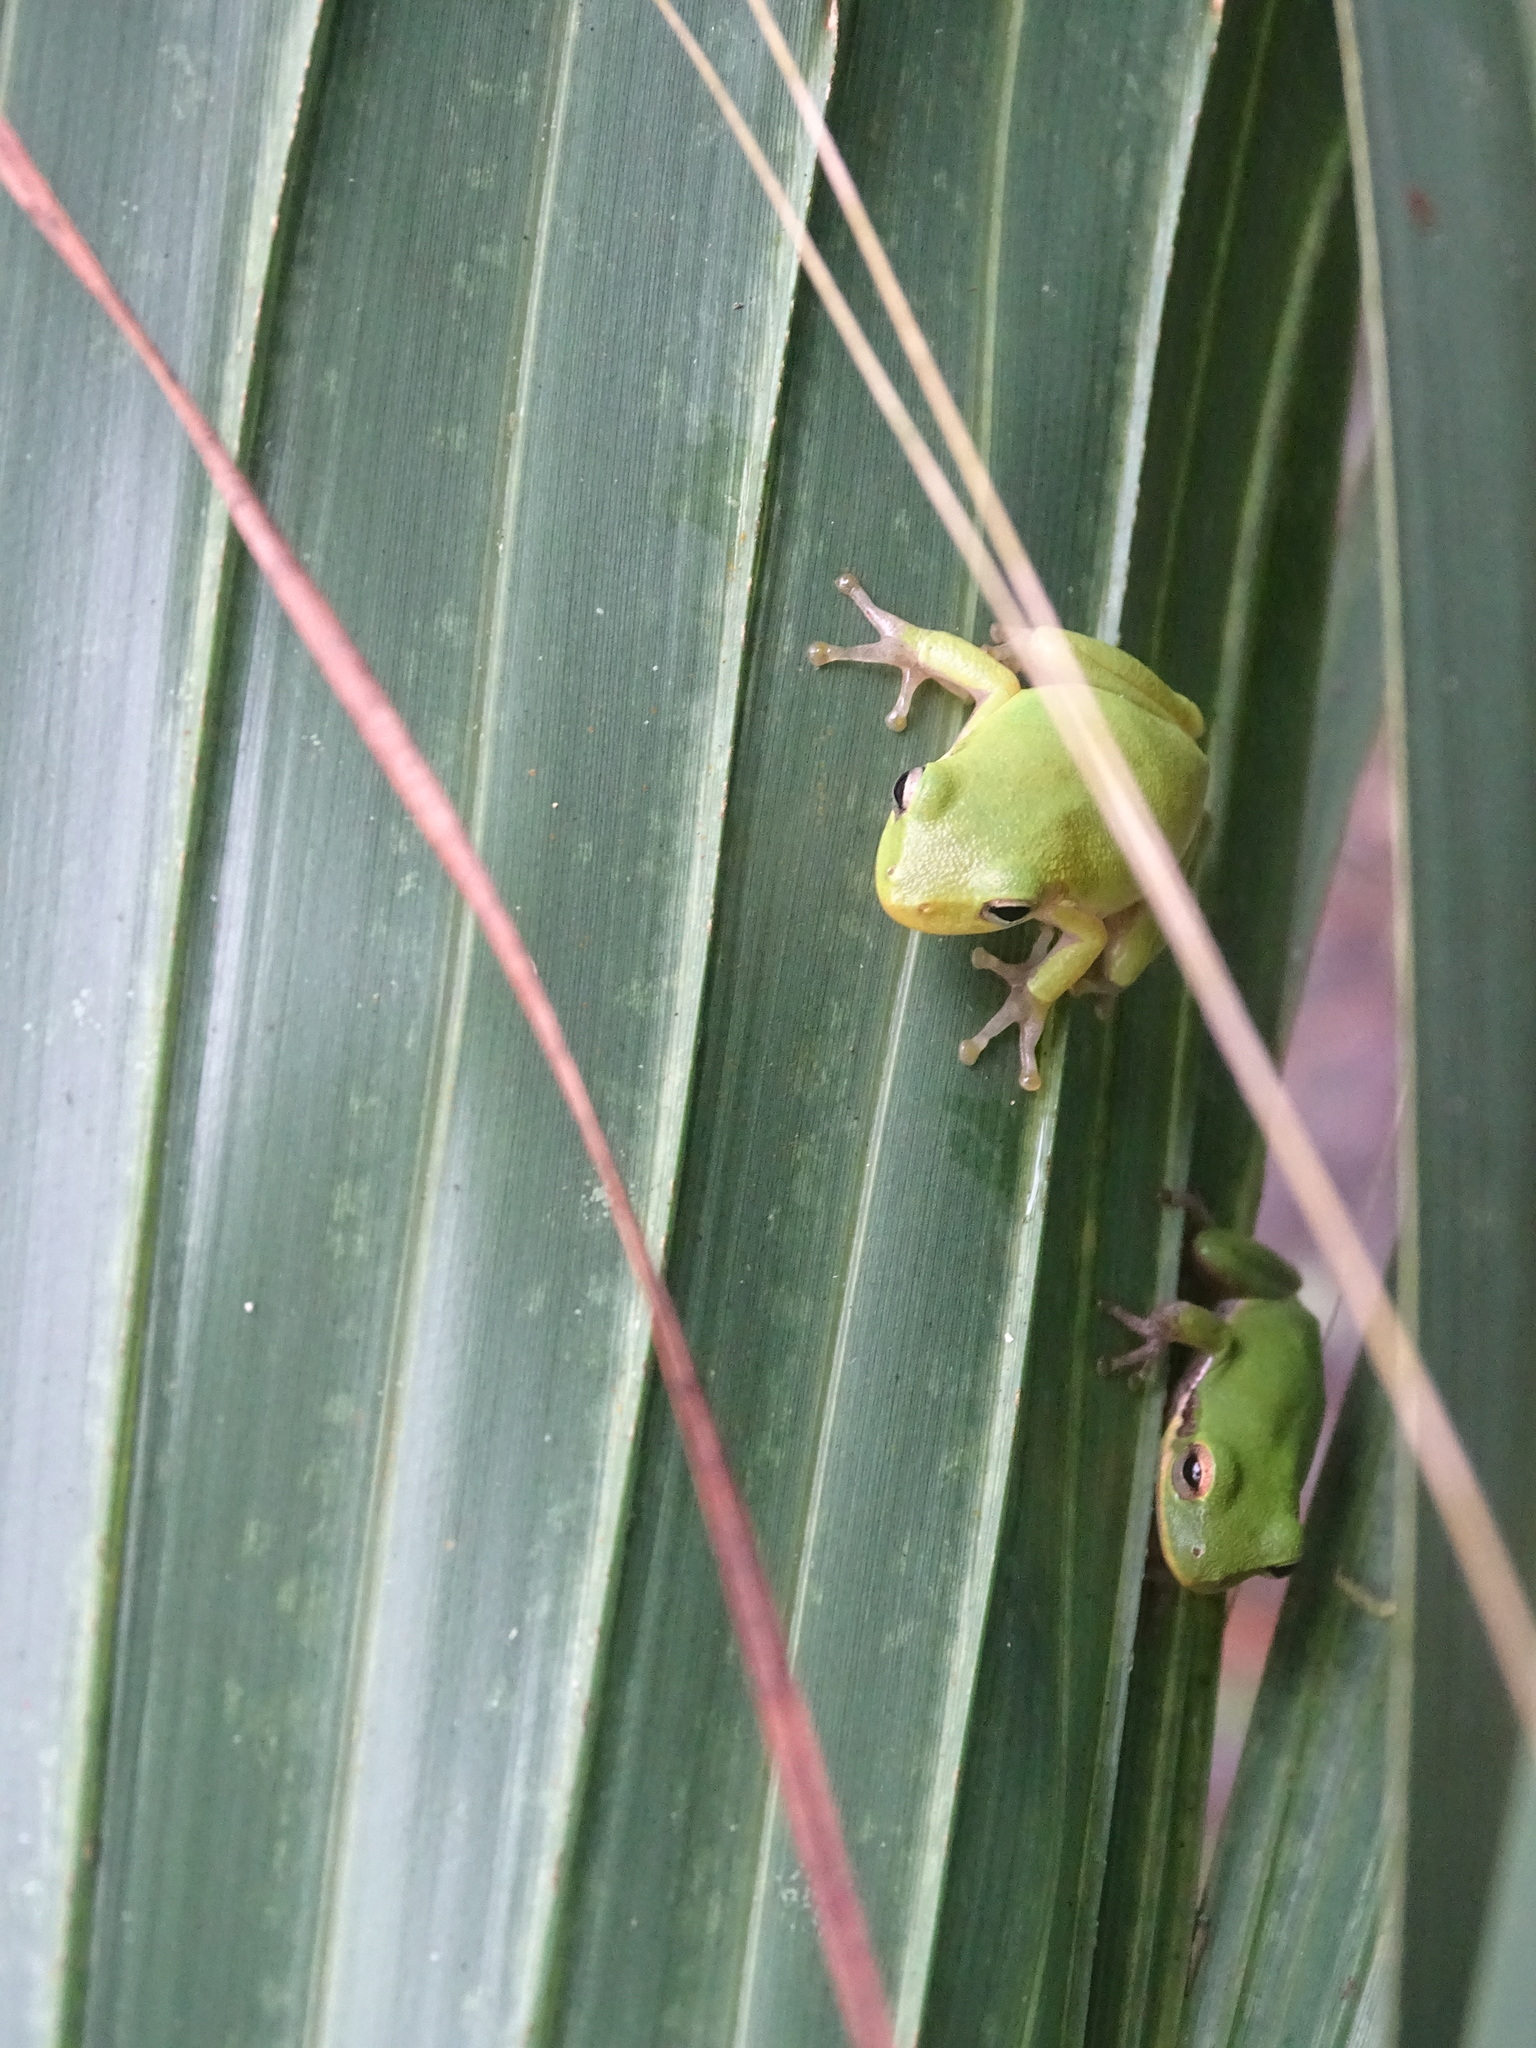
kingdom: Animalia
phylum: Chordata
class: Amphibia
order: Anura
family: Hylidae
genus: Dryophytes
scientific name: Dryophytes squirellus
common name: Squirrel treefrog
